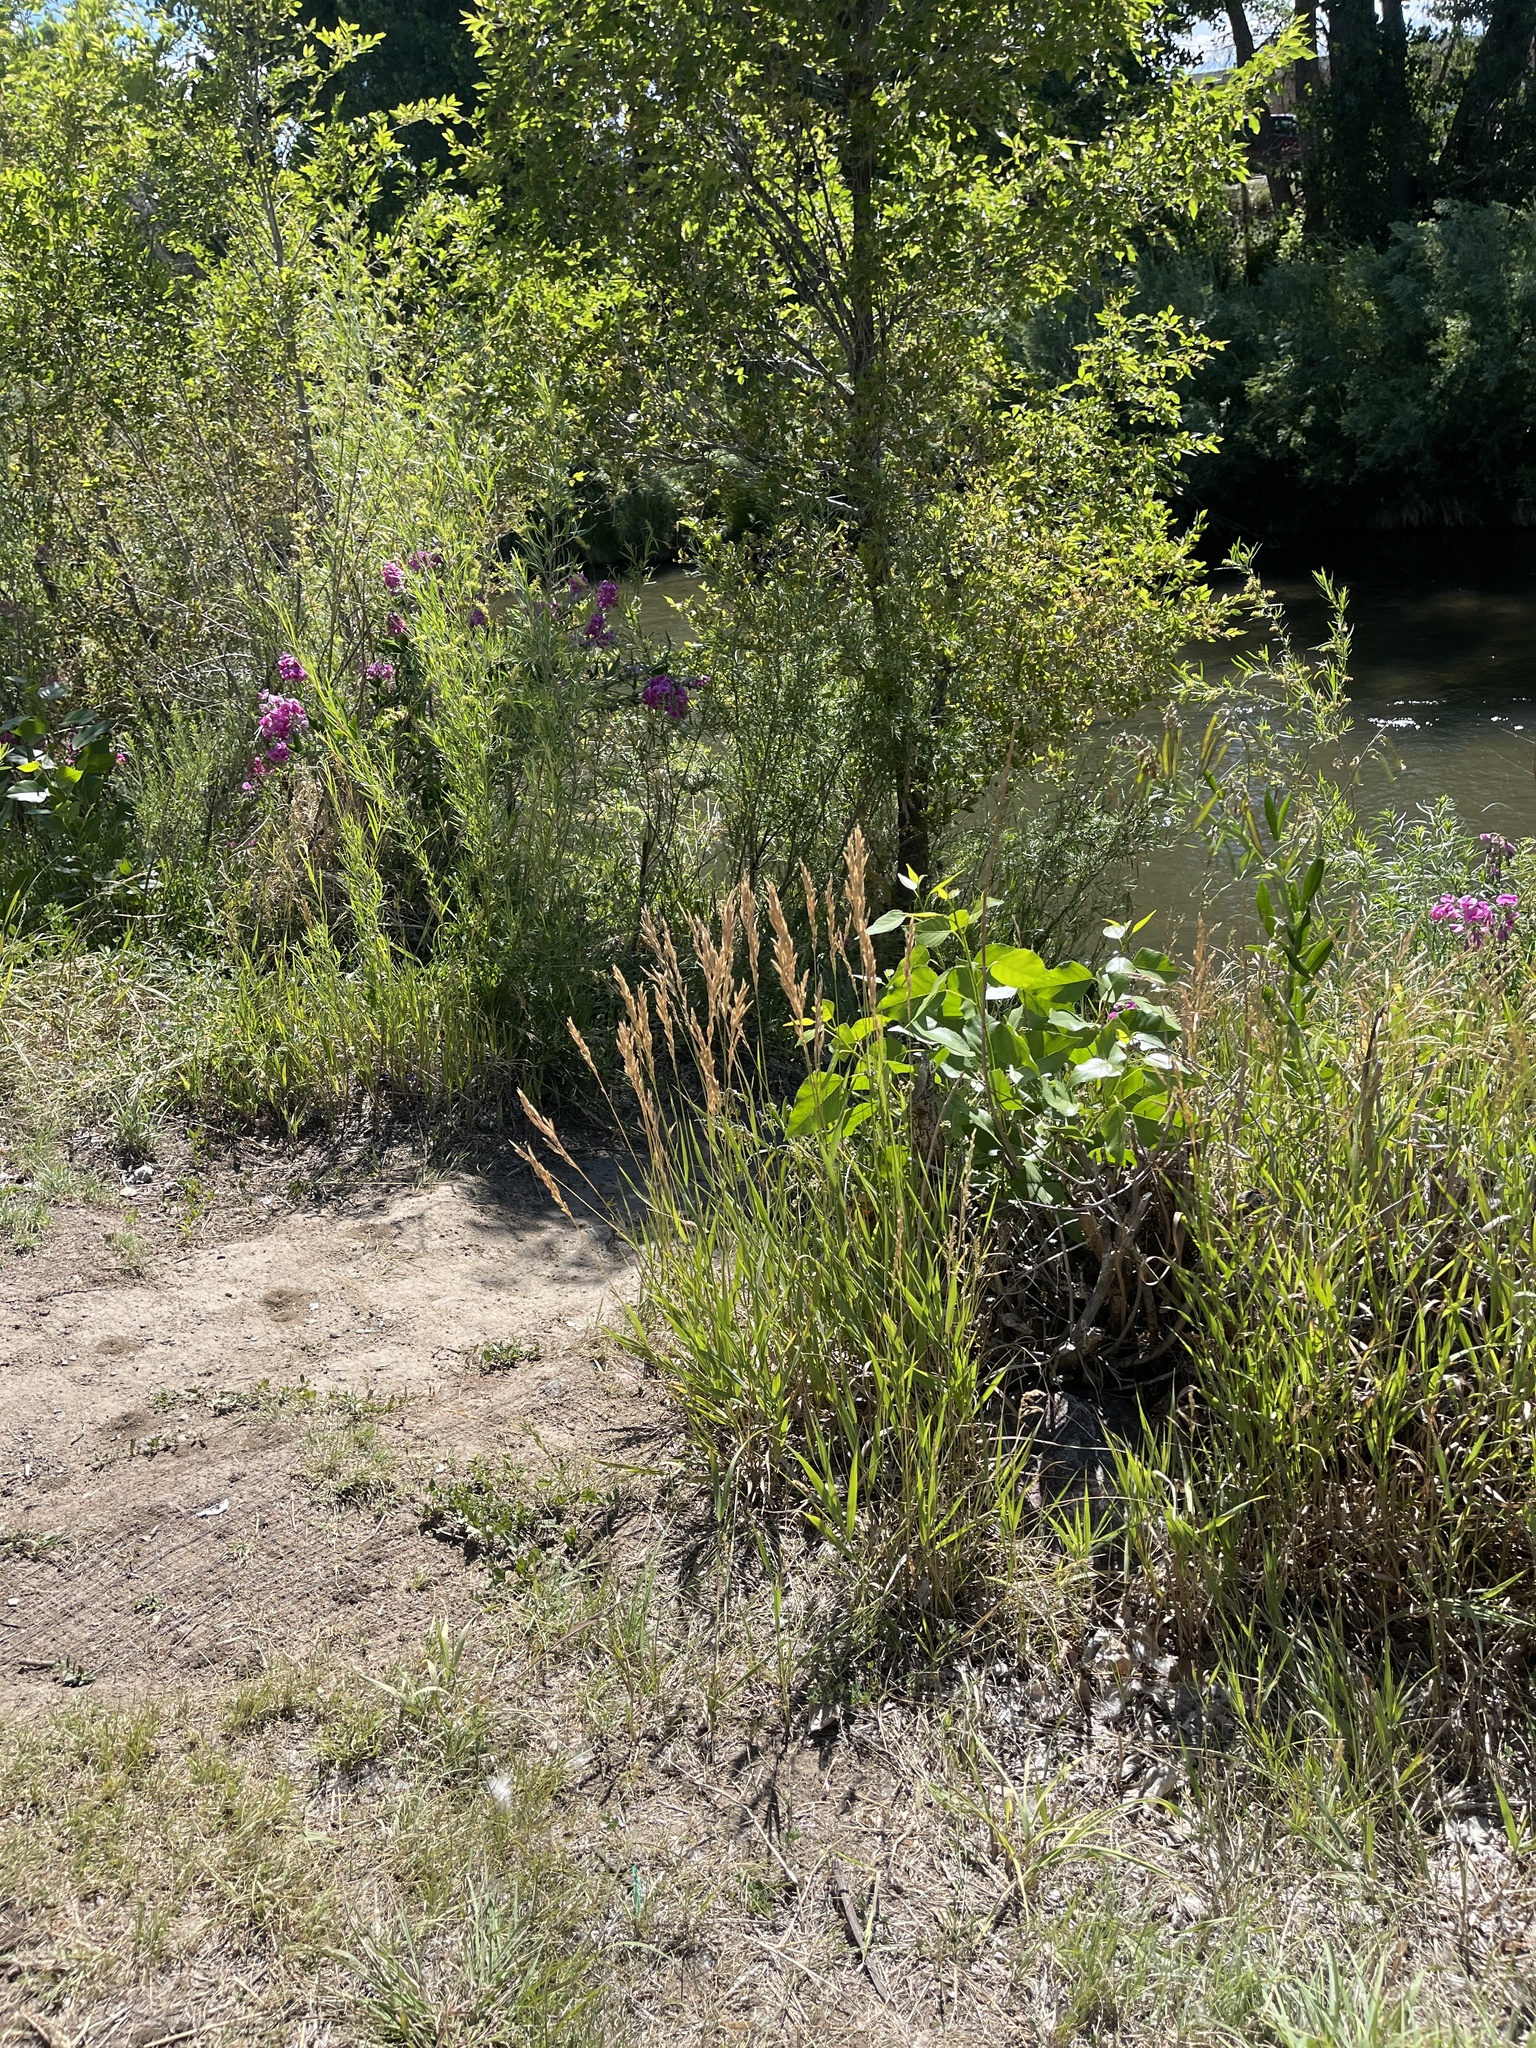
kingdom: Plantae
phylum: Tracheophyta
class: Liliopsida
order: Poales
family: Poaceae
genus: Bromus
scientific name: Bromus inermis
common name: Smooth brome
